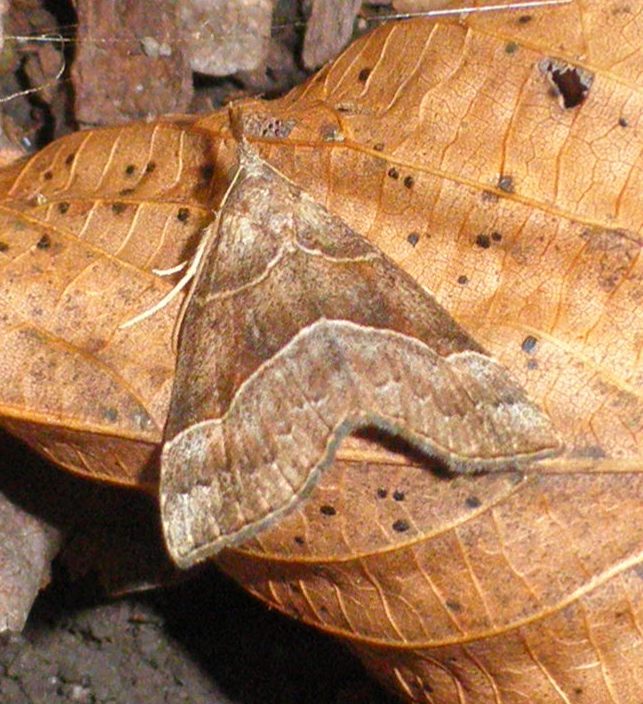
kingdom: Animalia
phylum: Arthropoda
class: Insecta
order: Lepidoptera
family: Erebidae
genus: Hypena
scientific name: Hypena deceptalis
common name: Deceptive snout
